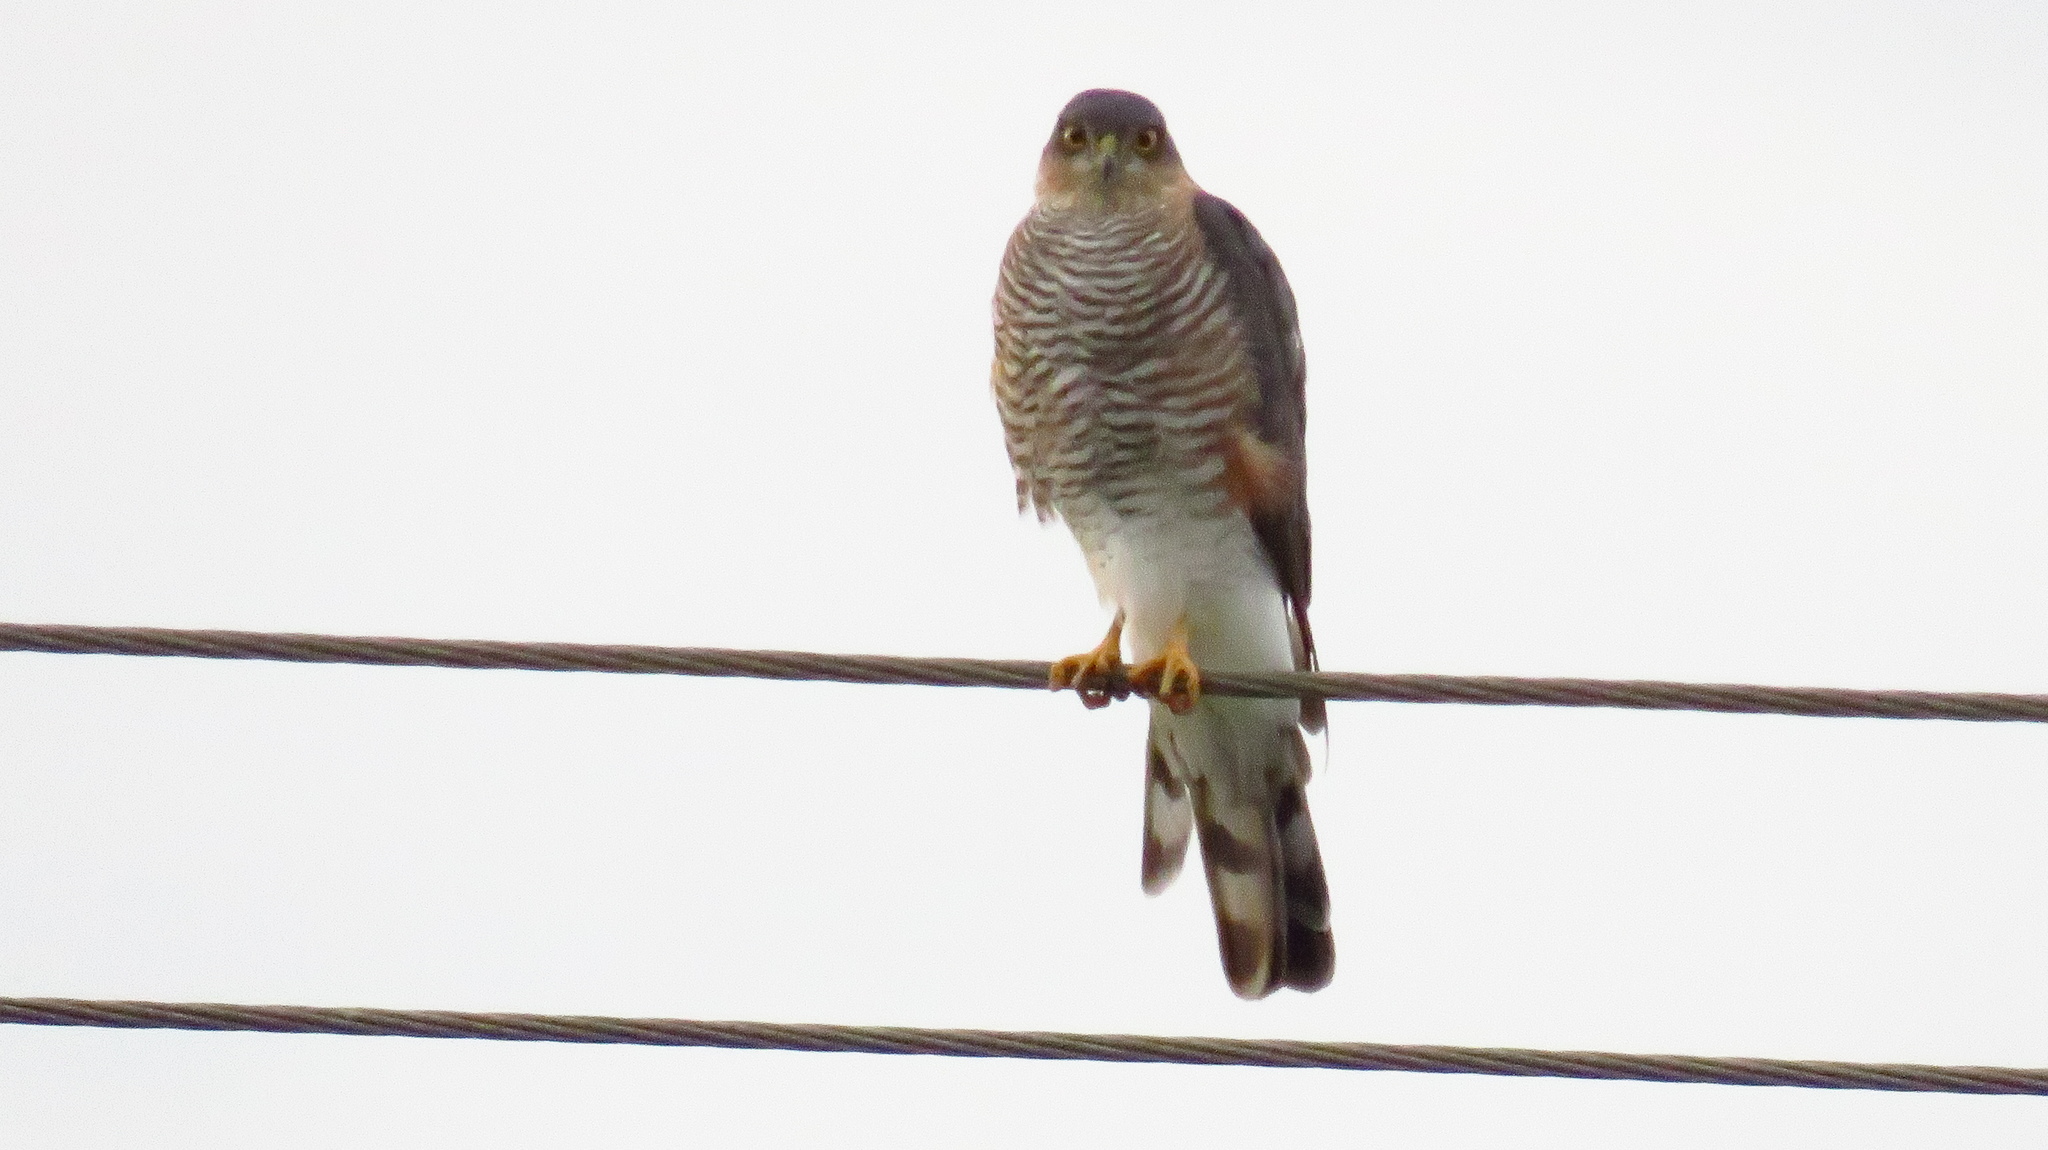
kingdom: Animalia
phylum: Chordata
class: Aves
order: Accipitriformes
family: Accipitridae
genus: Accipiter
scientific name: Accipiter nisus
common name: Eurasian sparrowhawk
